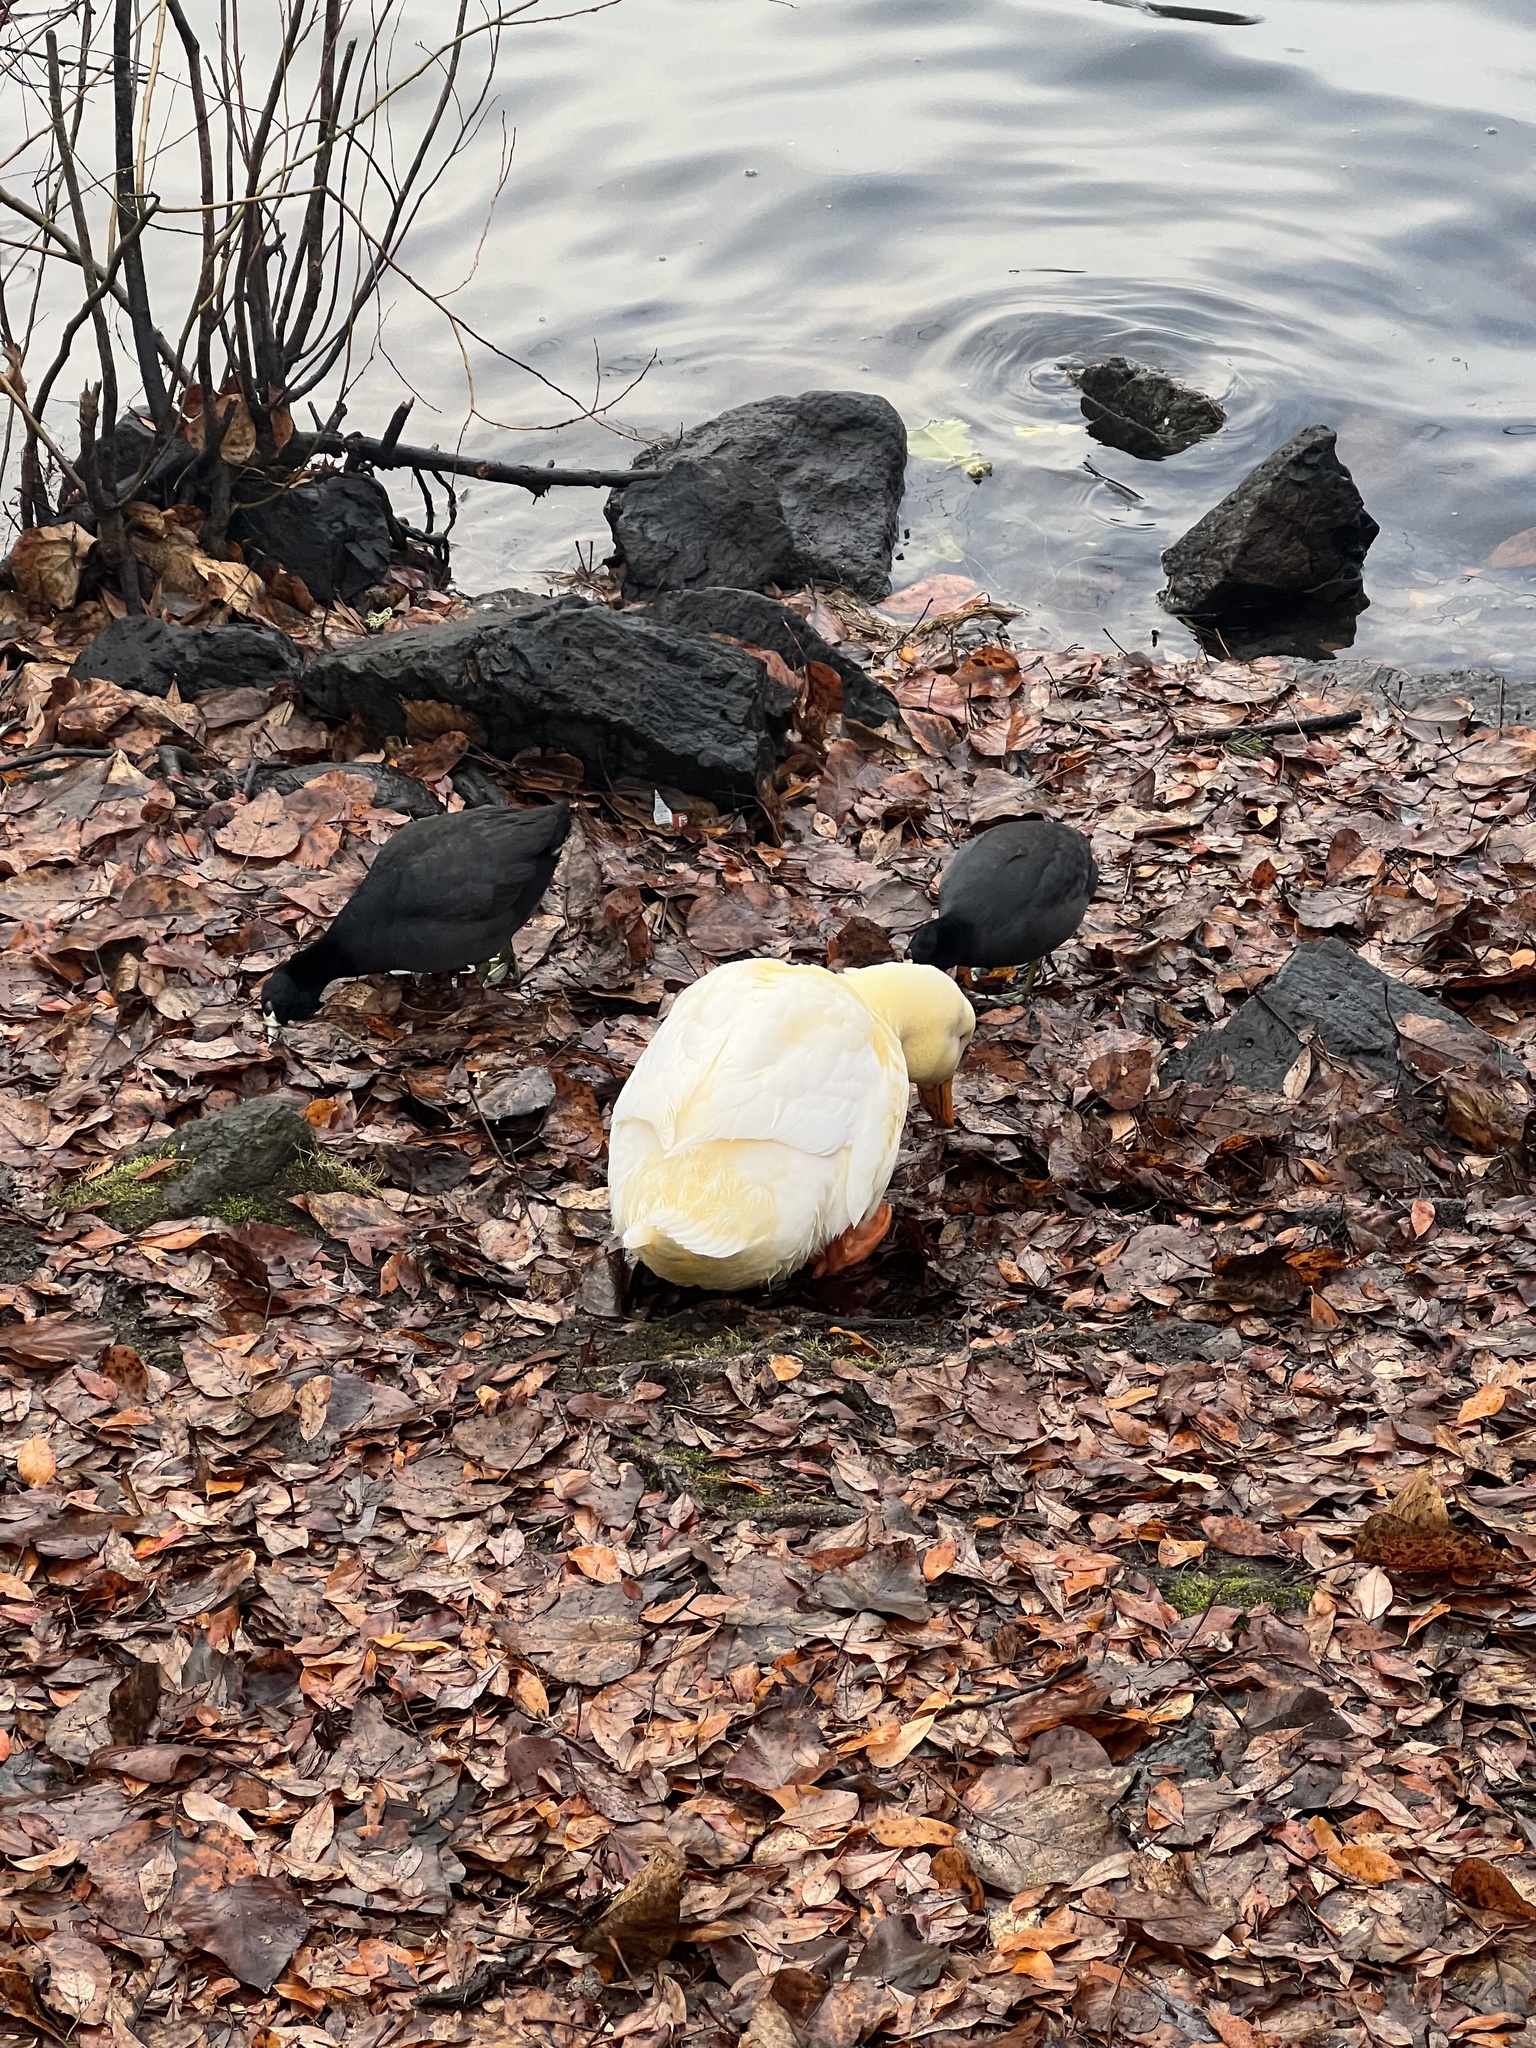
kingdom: Animalia
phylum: Chordata
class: Aves
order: Gruiformes
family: Rallidae
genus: Fulica
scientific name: Fulica americana
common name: American coot
